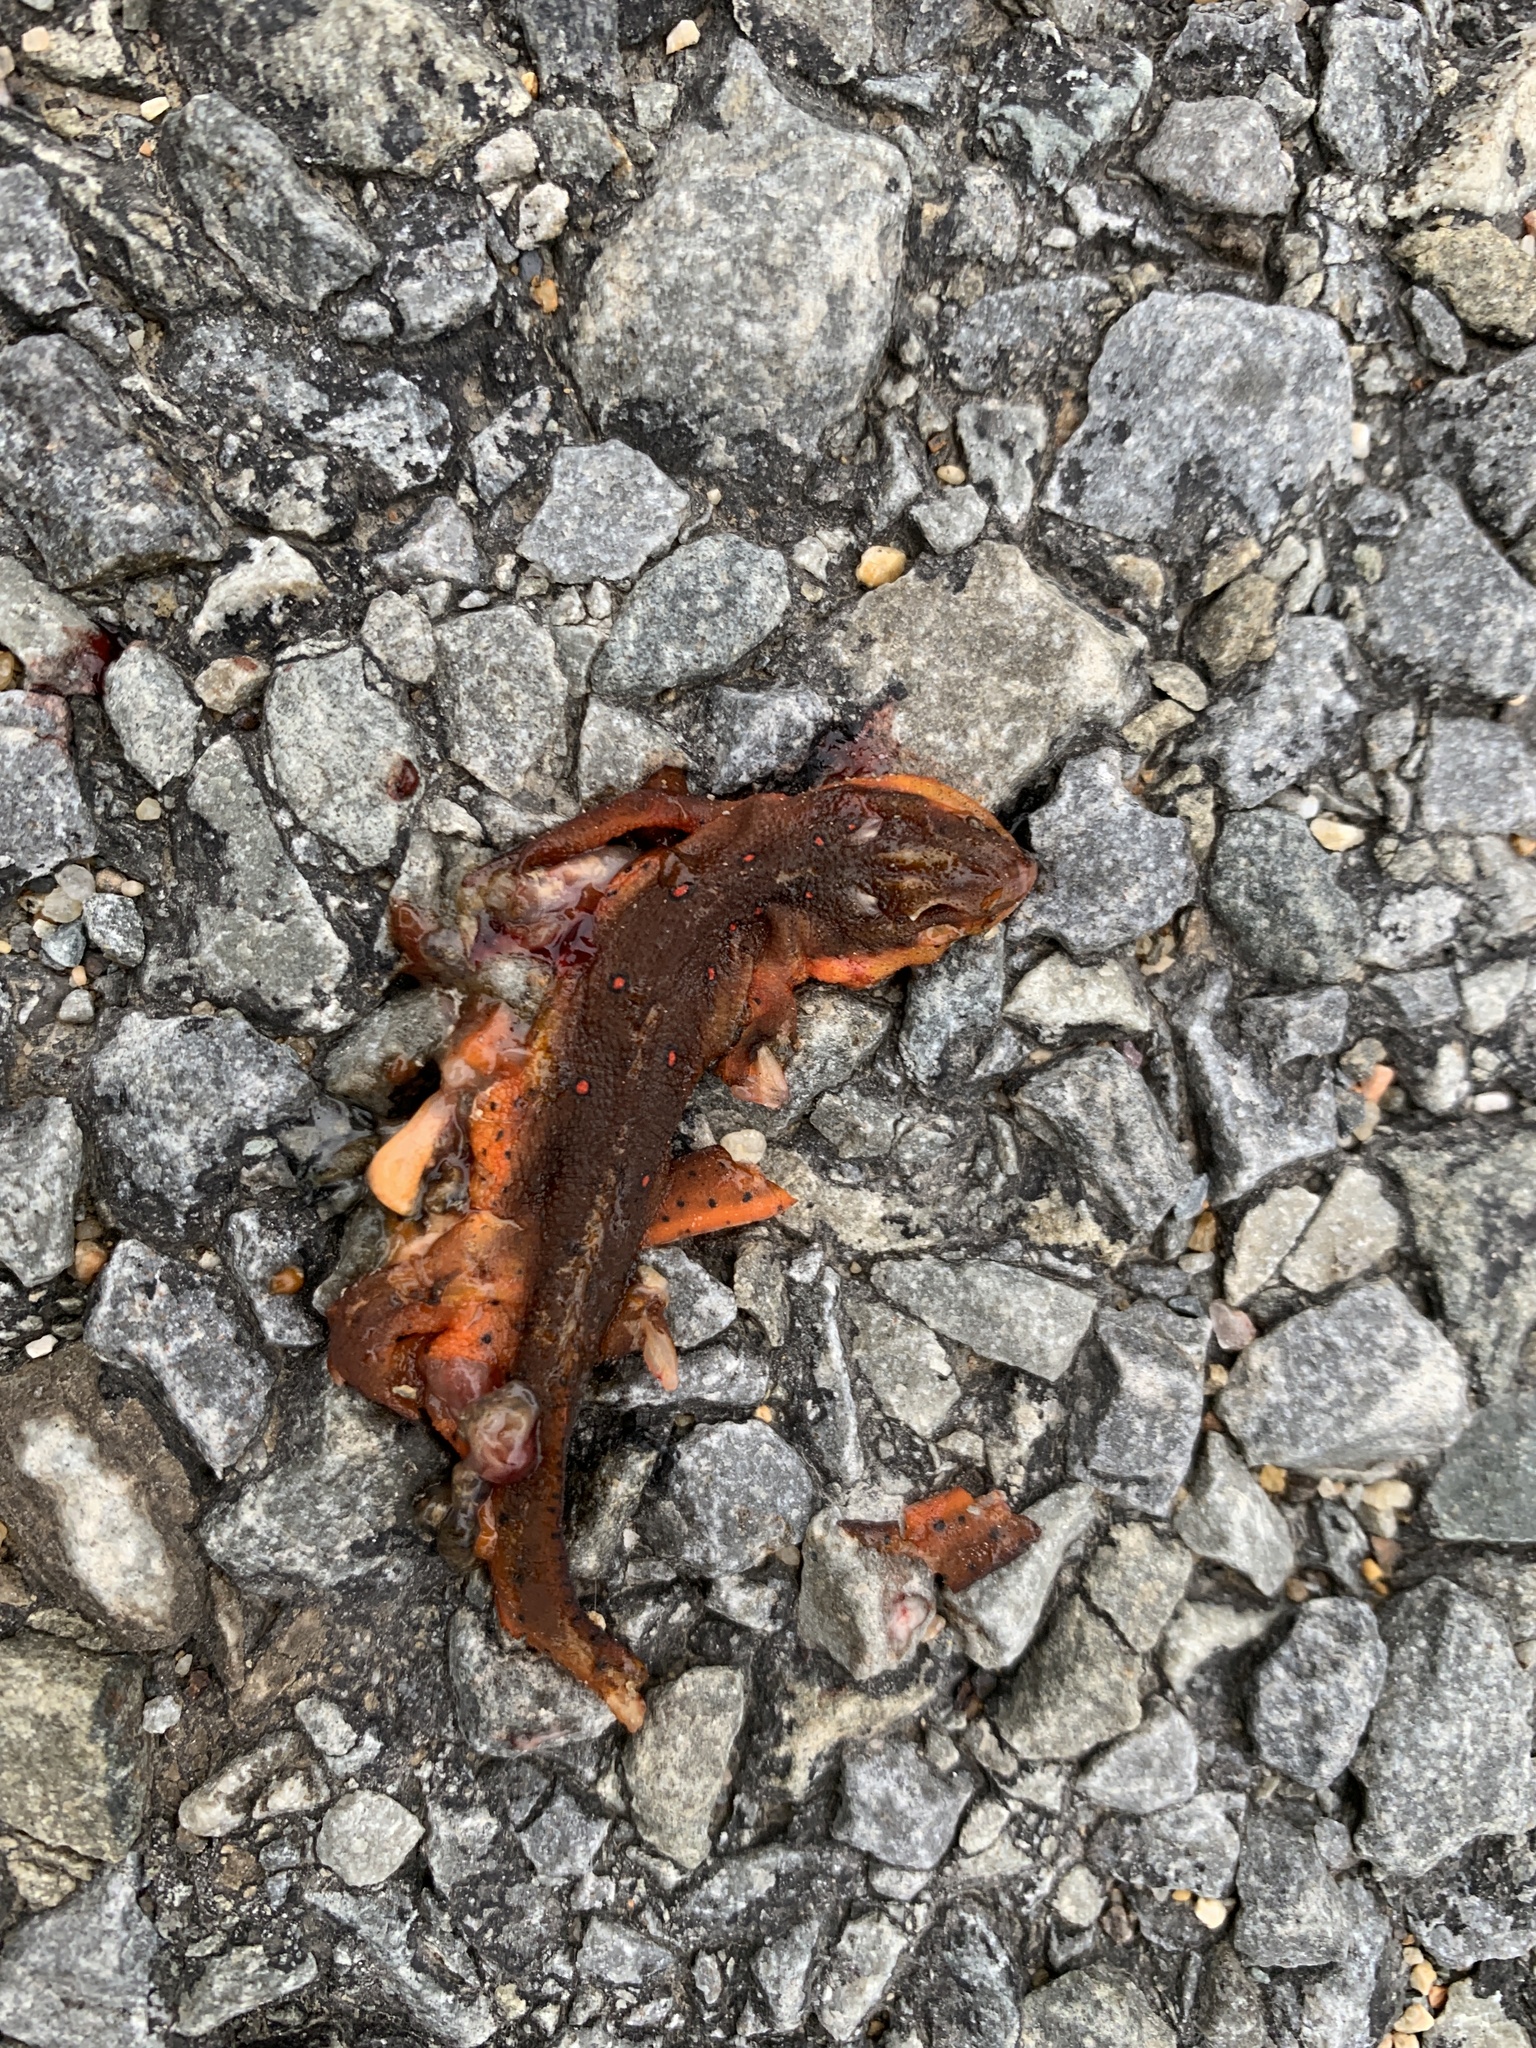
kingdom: Animalia
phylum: Chordata
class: Amphibia
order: Caudata
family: Salamandridae
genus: Notophthalmus
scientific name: Notophthalmus viridescens
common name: Eastern newt
